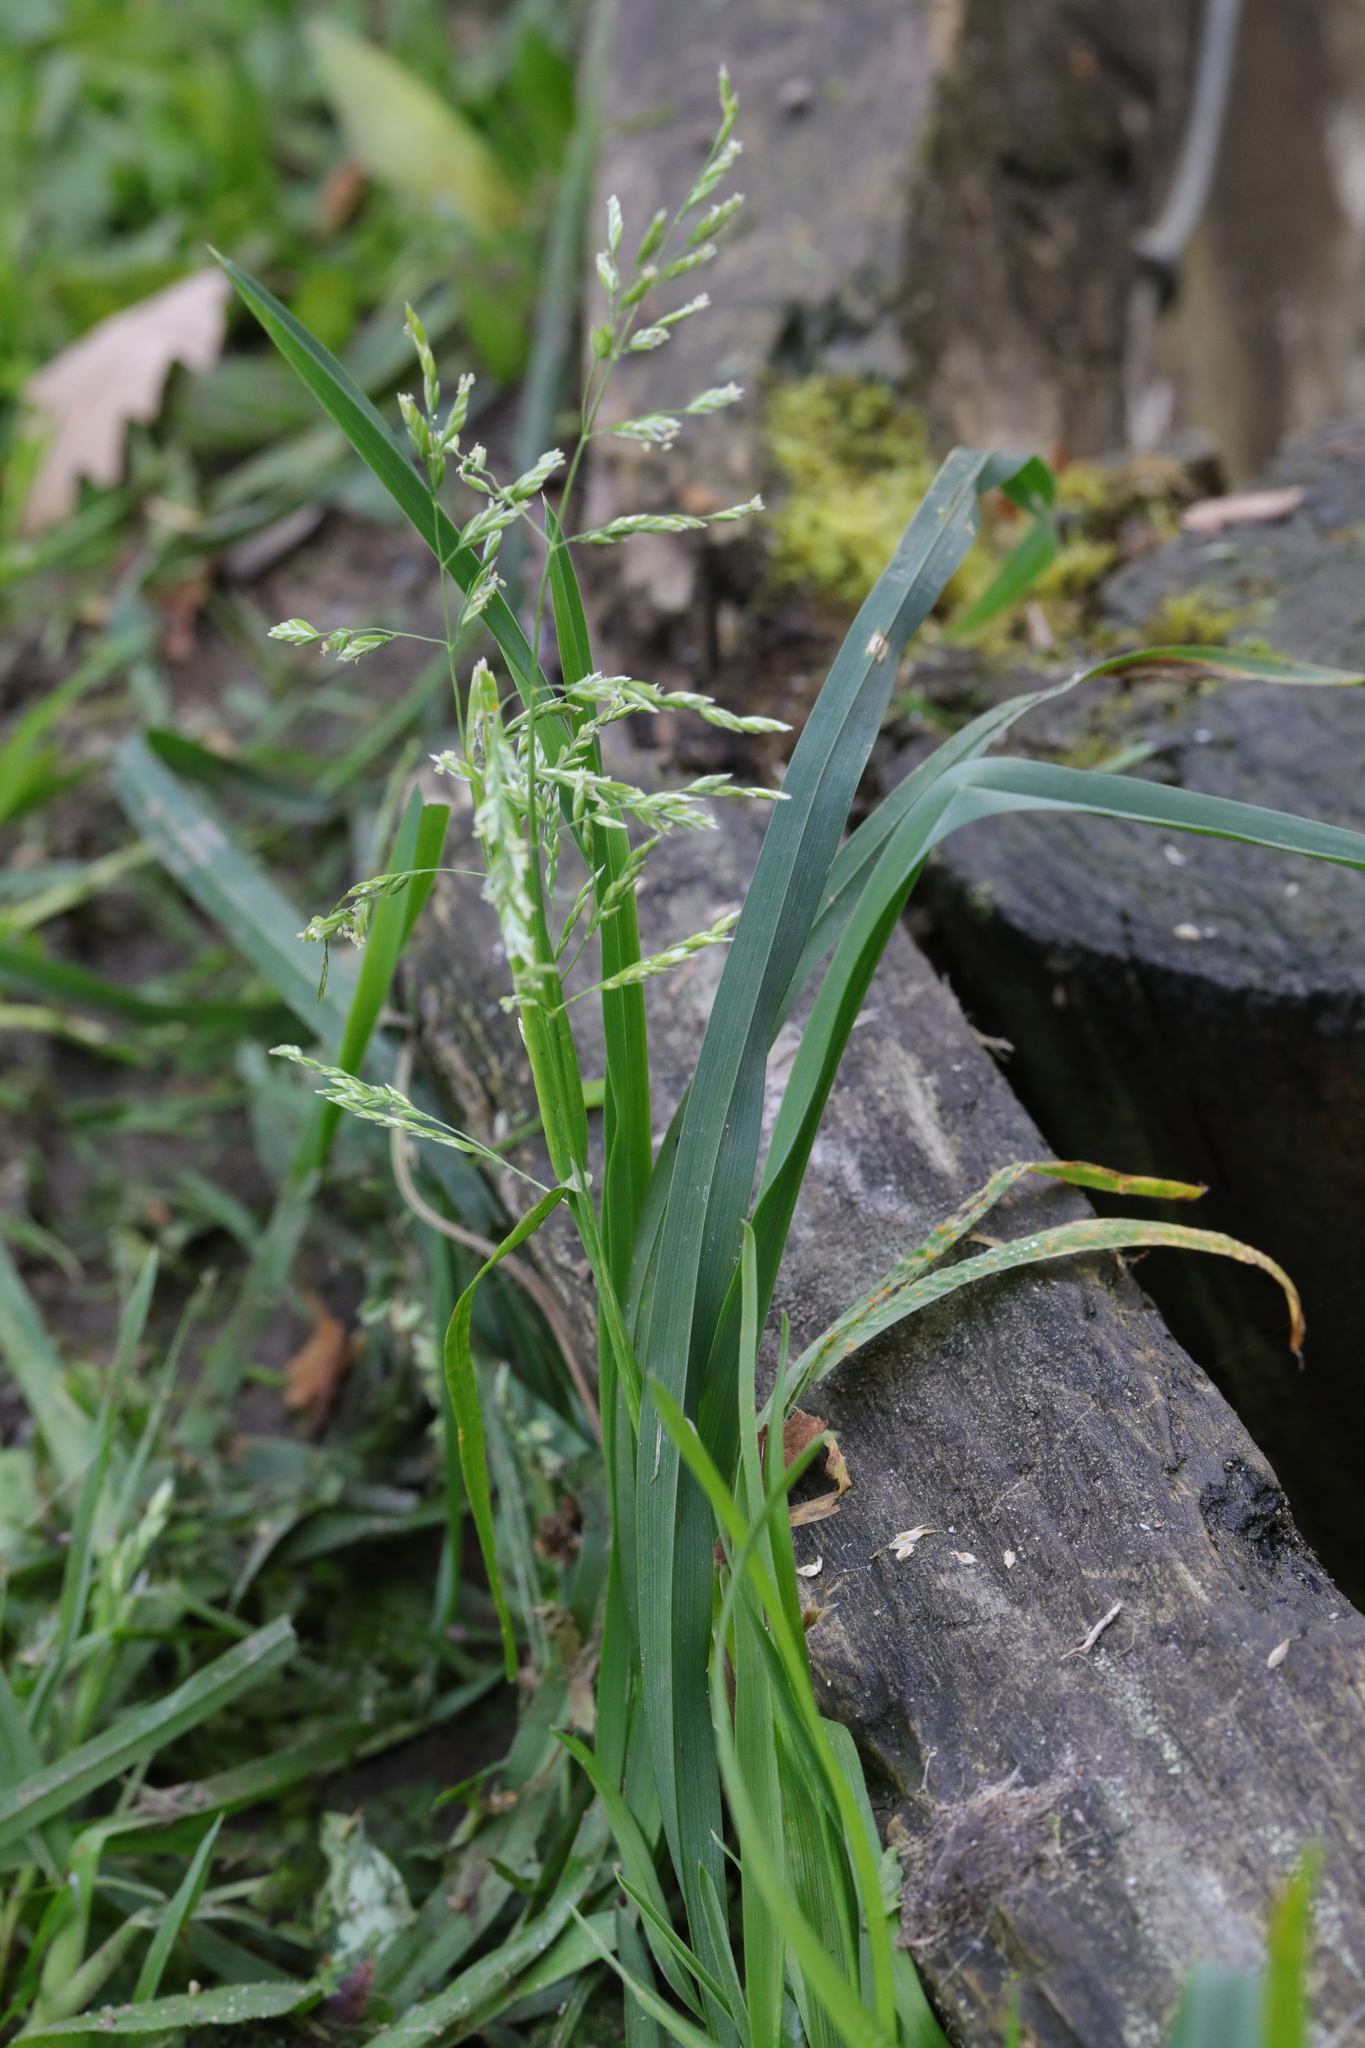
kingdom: Plantae
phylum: Tracheophyta
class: Liliopsida
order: Poales
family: Poaceae
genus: Poa
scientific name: Poa annua
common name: Annual bluegrass
